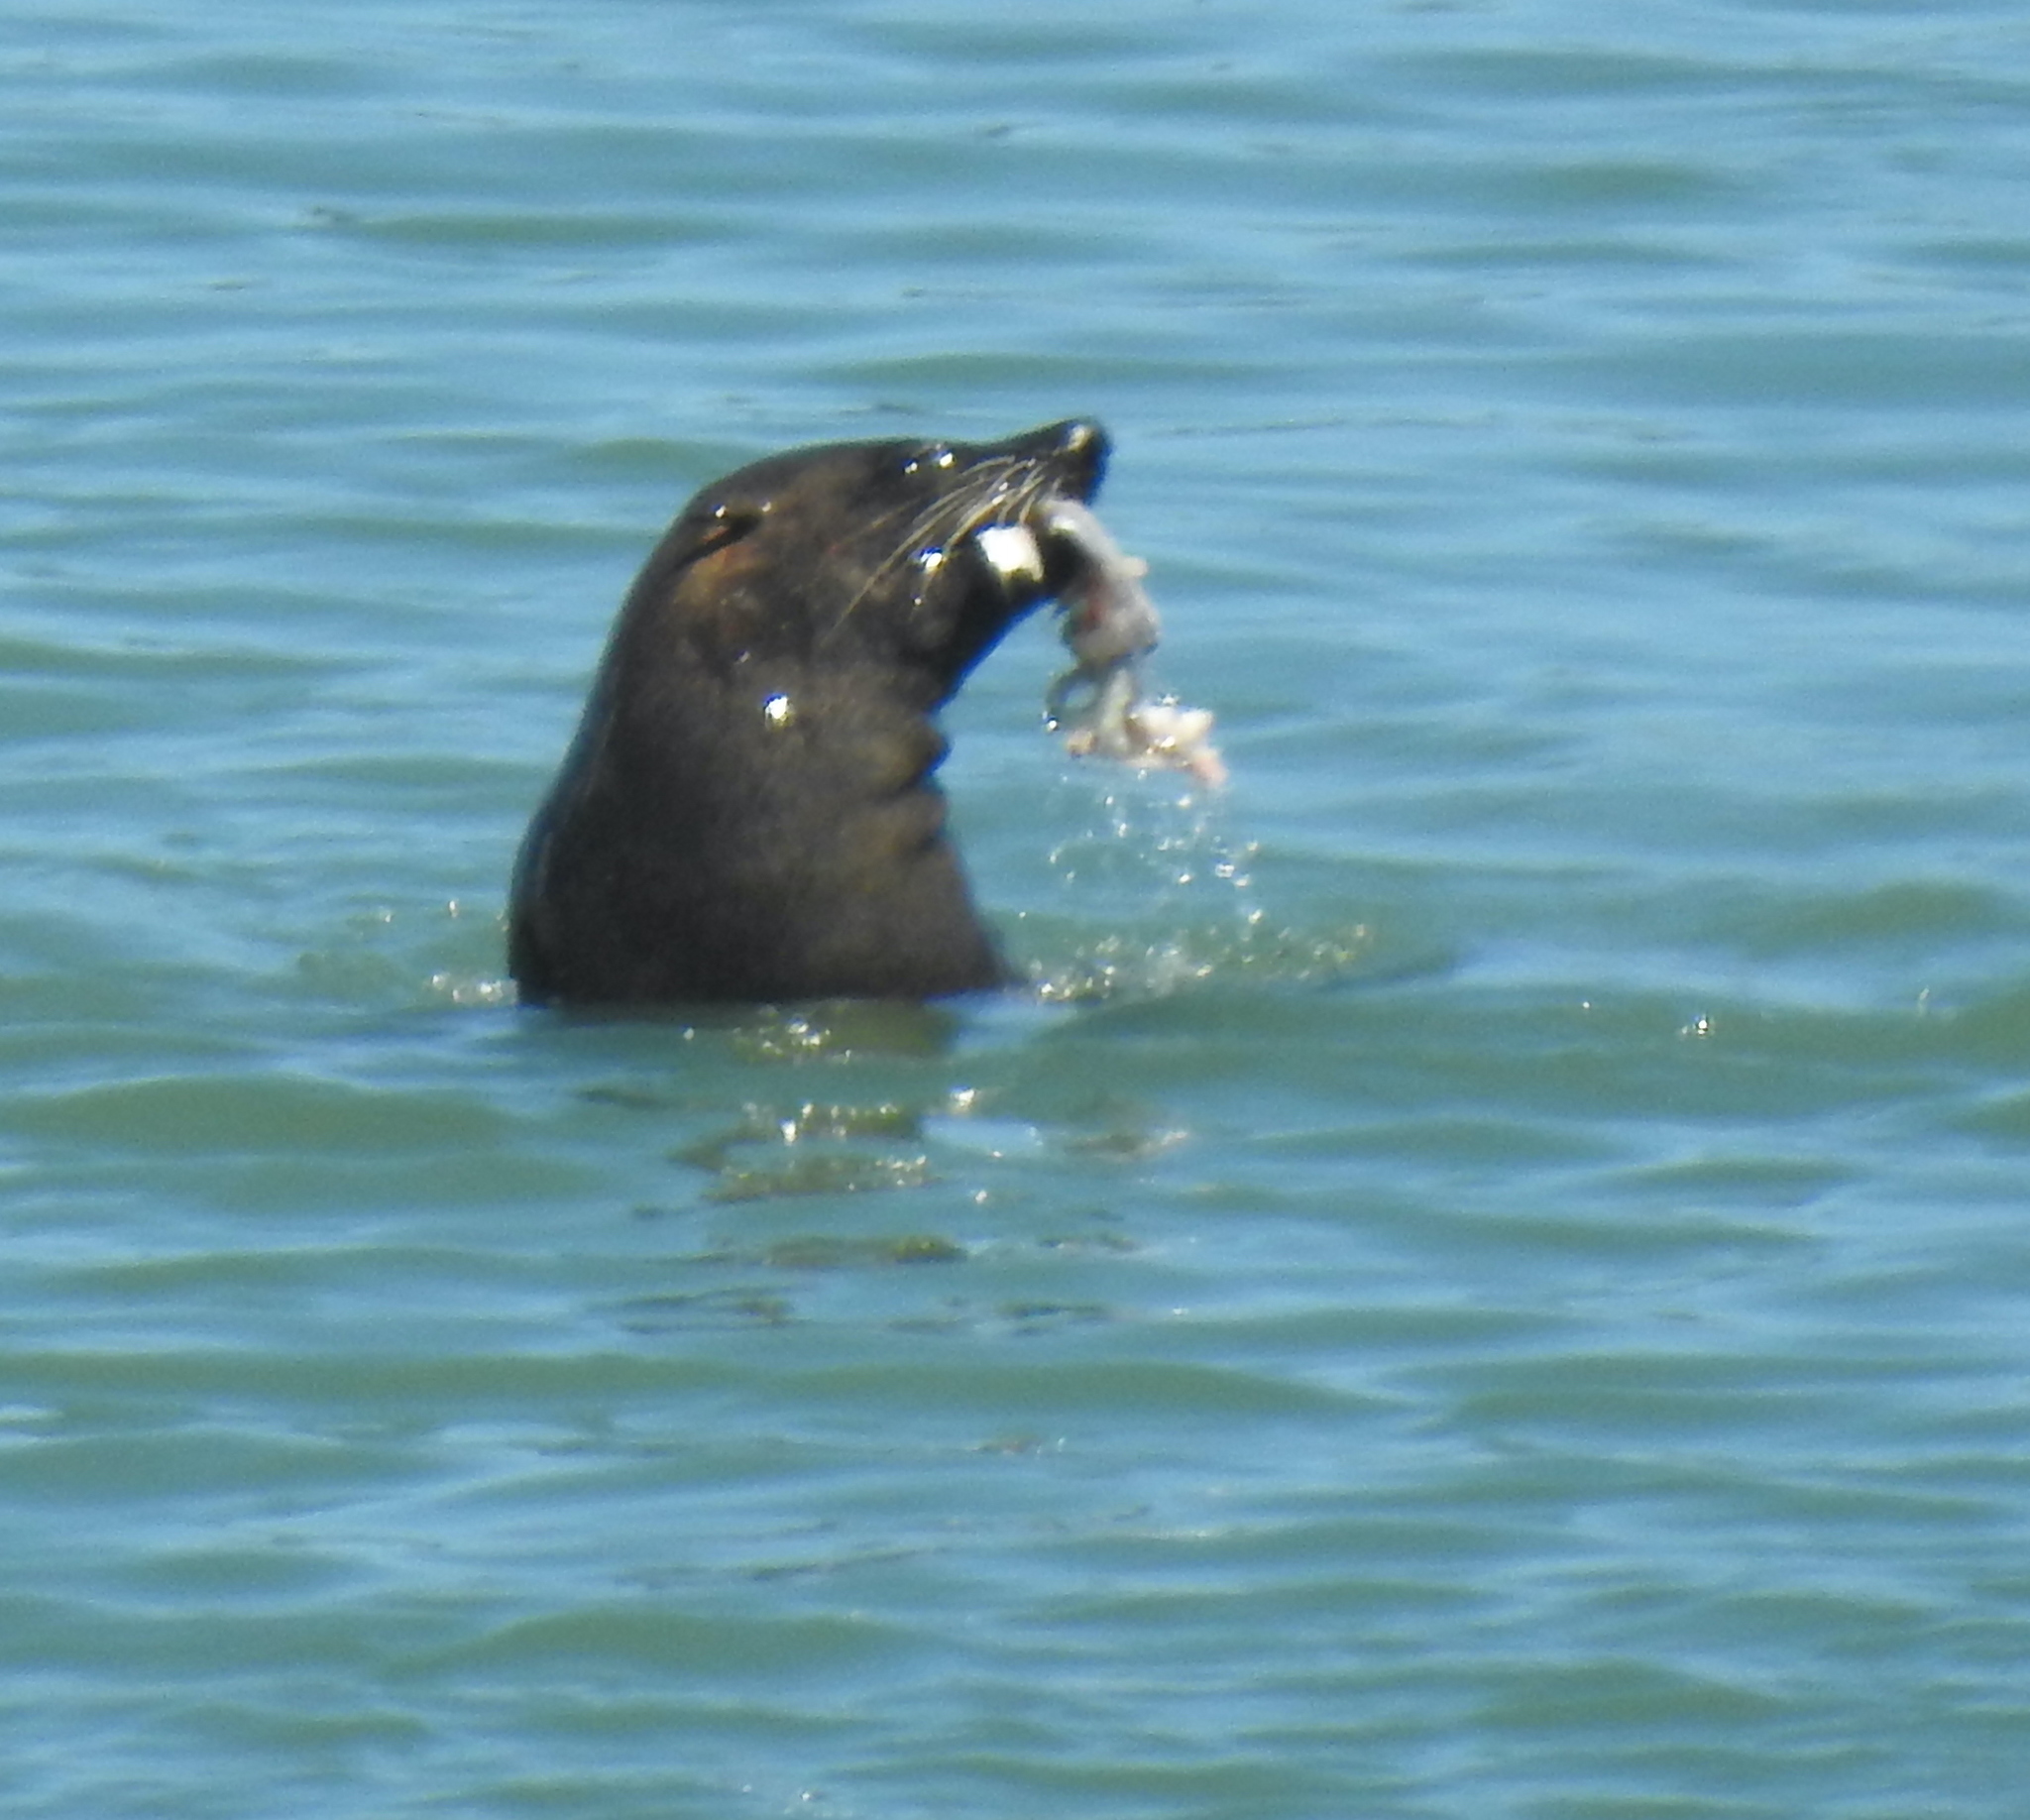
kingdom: Animalia
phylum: Chordata
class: Mammalia
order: Carnivora
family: Otariidae
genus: Arctocephalus
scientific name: Arctocephalus pusillus
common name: Brown fur seal
